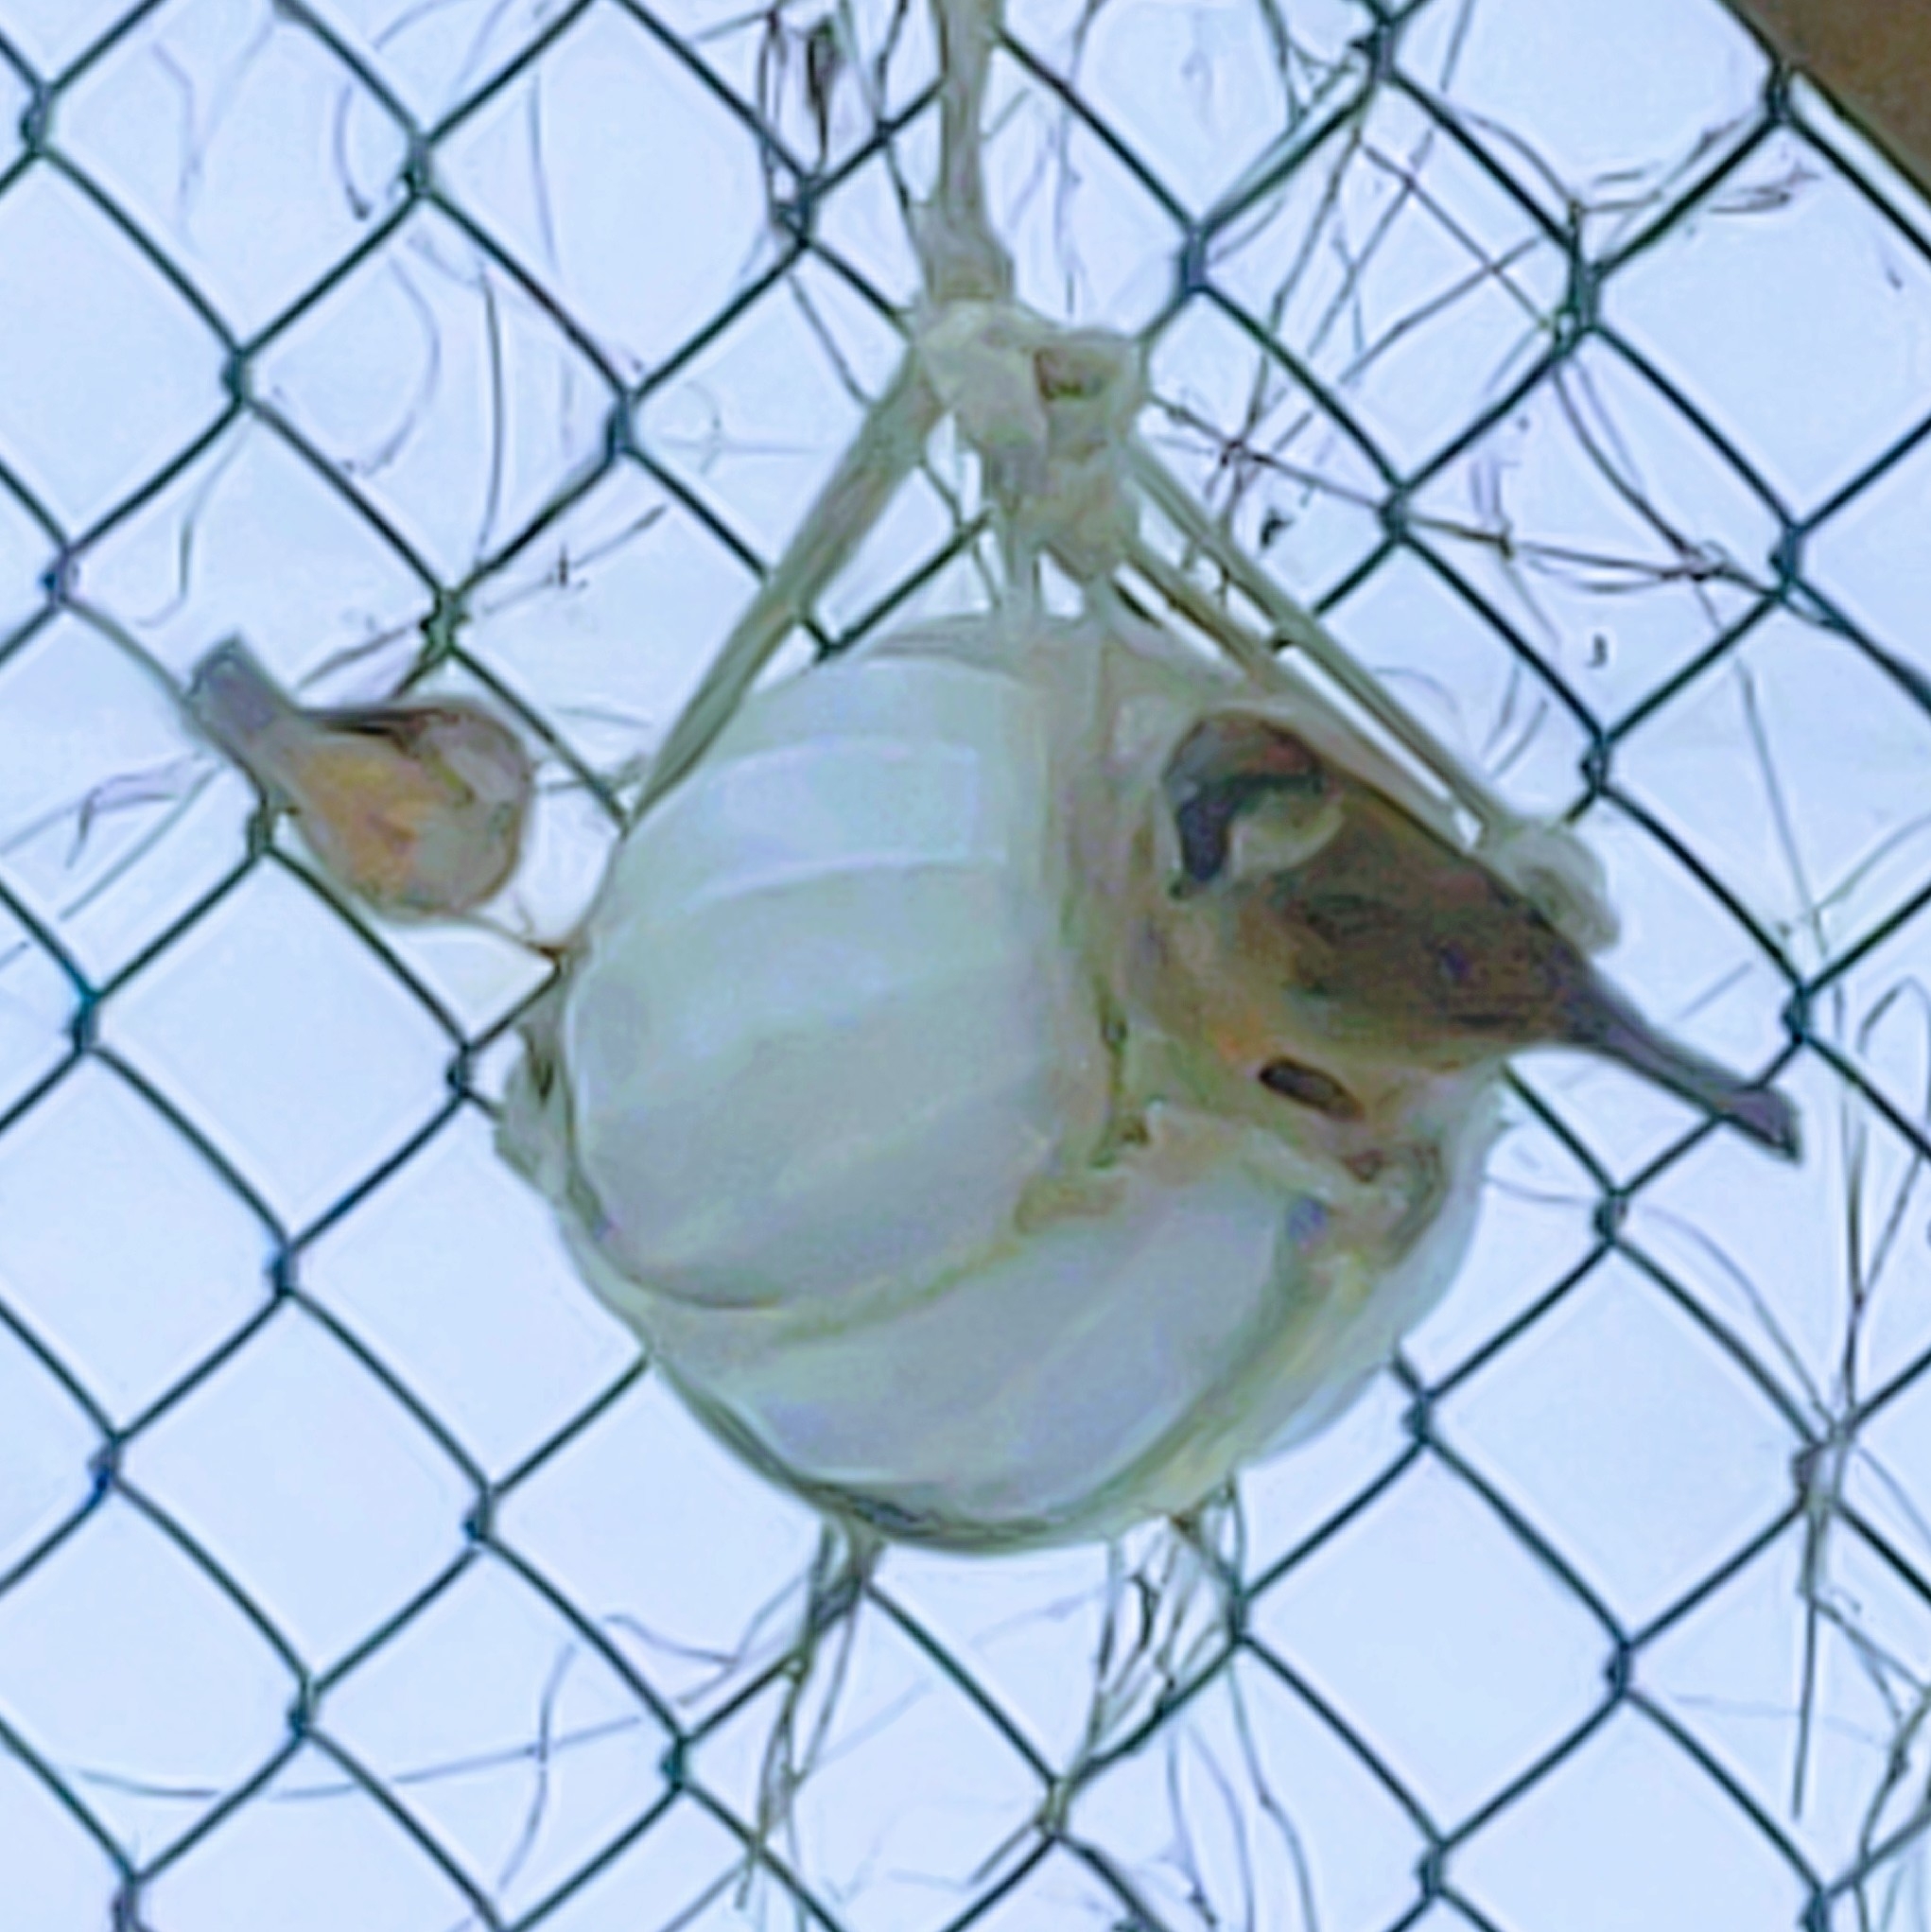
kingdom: Animalia
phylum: Chordata
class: Aves
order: Passeriformes
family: Passeridae
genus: Passer
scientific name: Passer domesticus
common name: House sparrow
